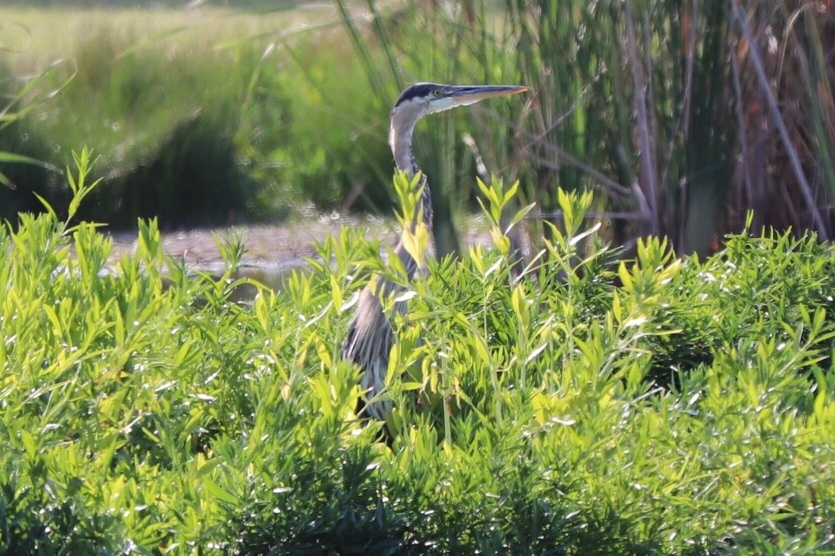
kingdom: Animalia
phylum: Chordata
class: Aves
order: Pelecaniformes
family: Ardeidae
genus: Ardea
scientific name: Ardea herodias
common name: Great blue heron
